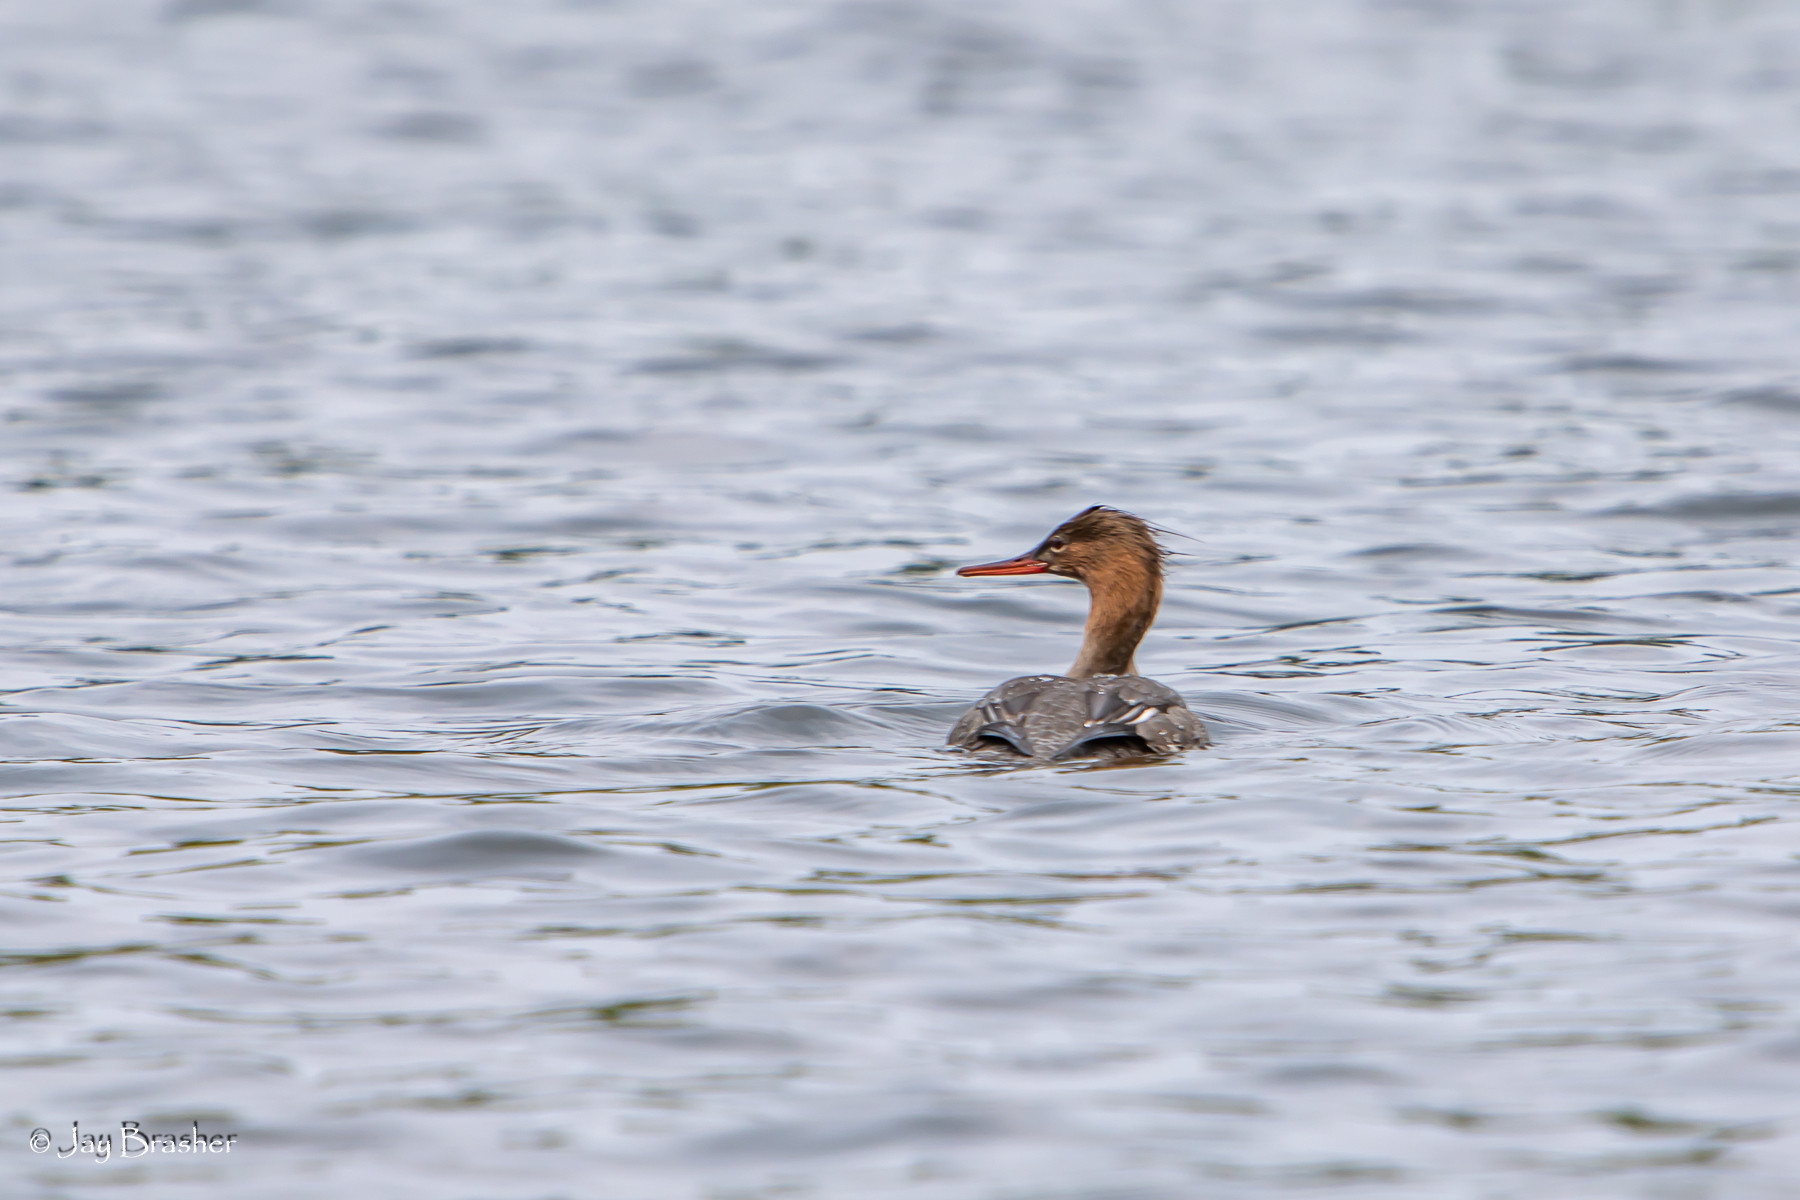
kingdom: Animalia
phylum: Chordata
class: Aves
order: Anseriformes
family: Anatidae
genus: Mergus
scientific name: Mergus serrator
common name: Red-breasted merganser
